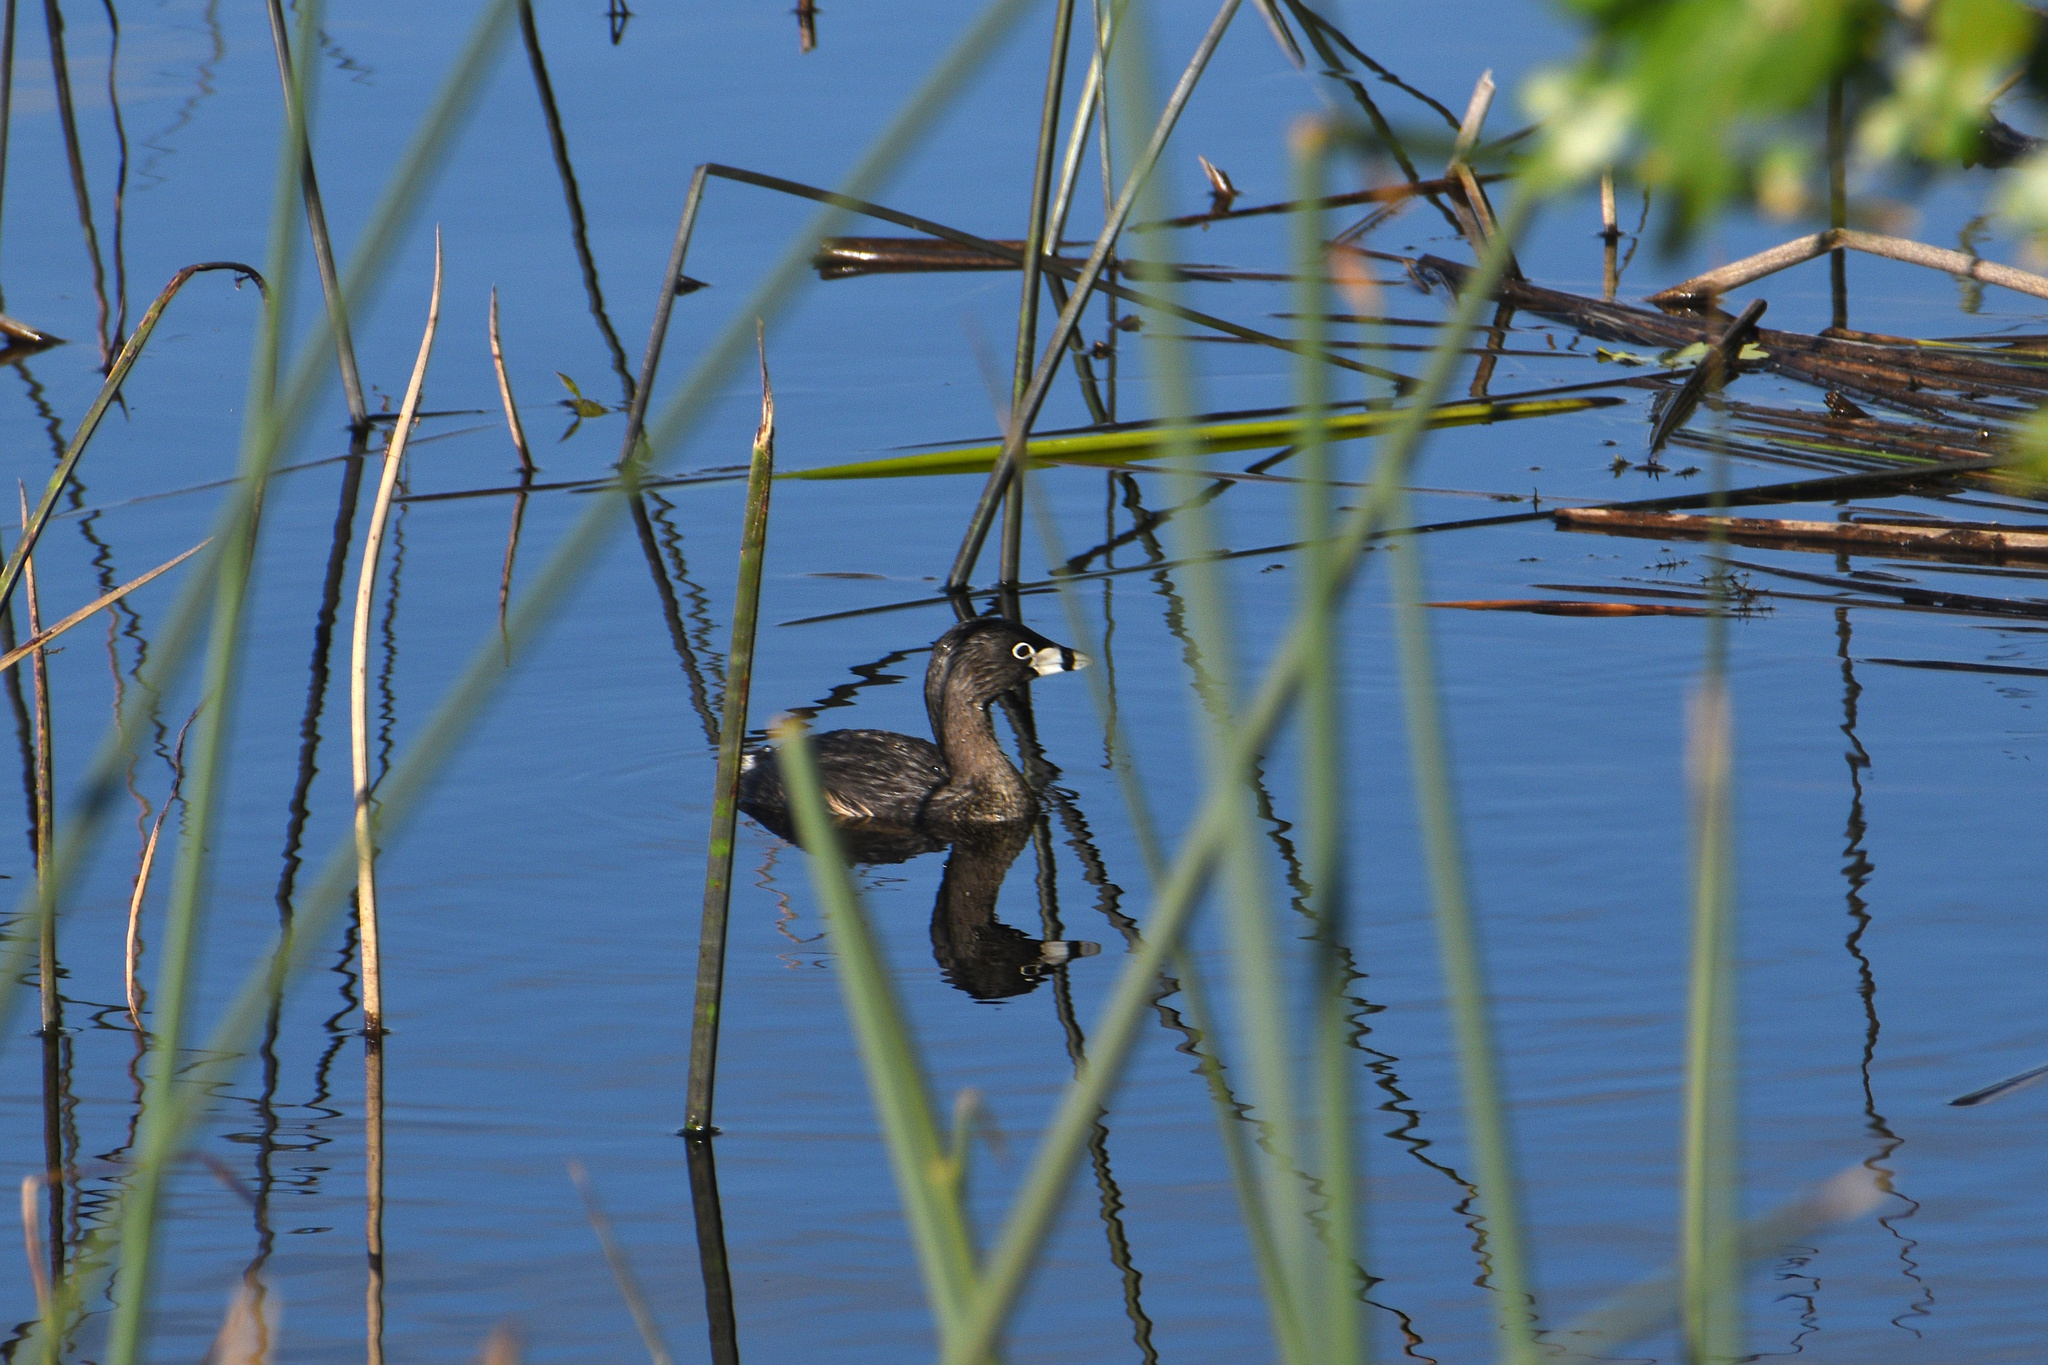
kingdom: Animalia
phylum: Chordata
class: Aves
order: Podicipediformes
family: Podicipedidae
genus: Podilymbus
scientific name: Podilymbus podiceps
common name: Pied-billed grebe
